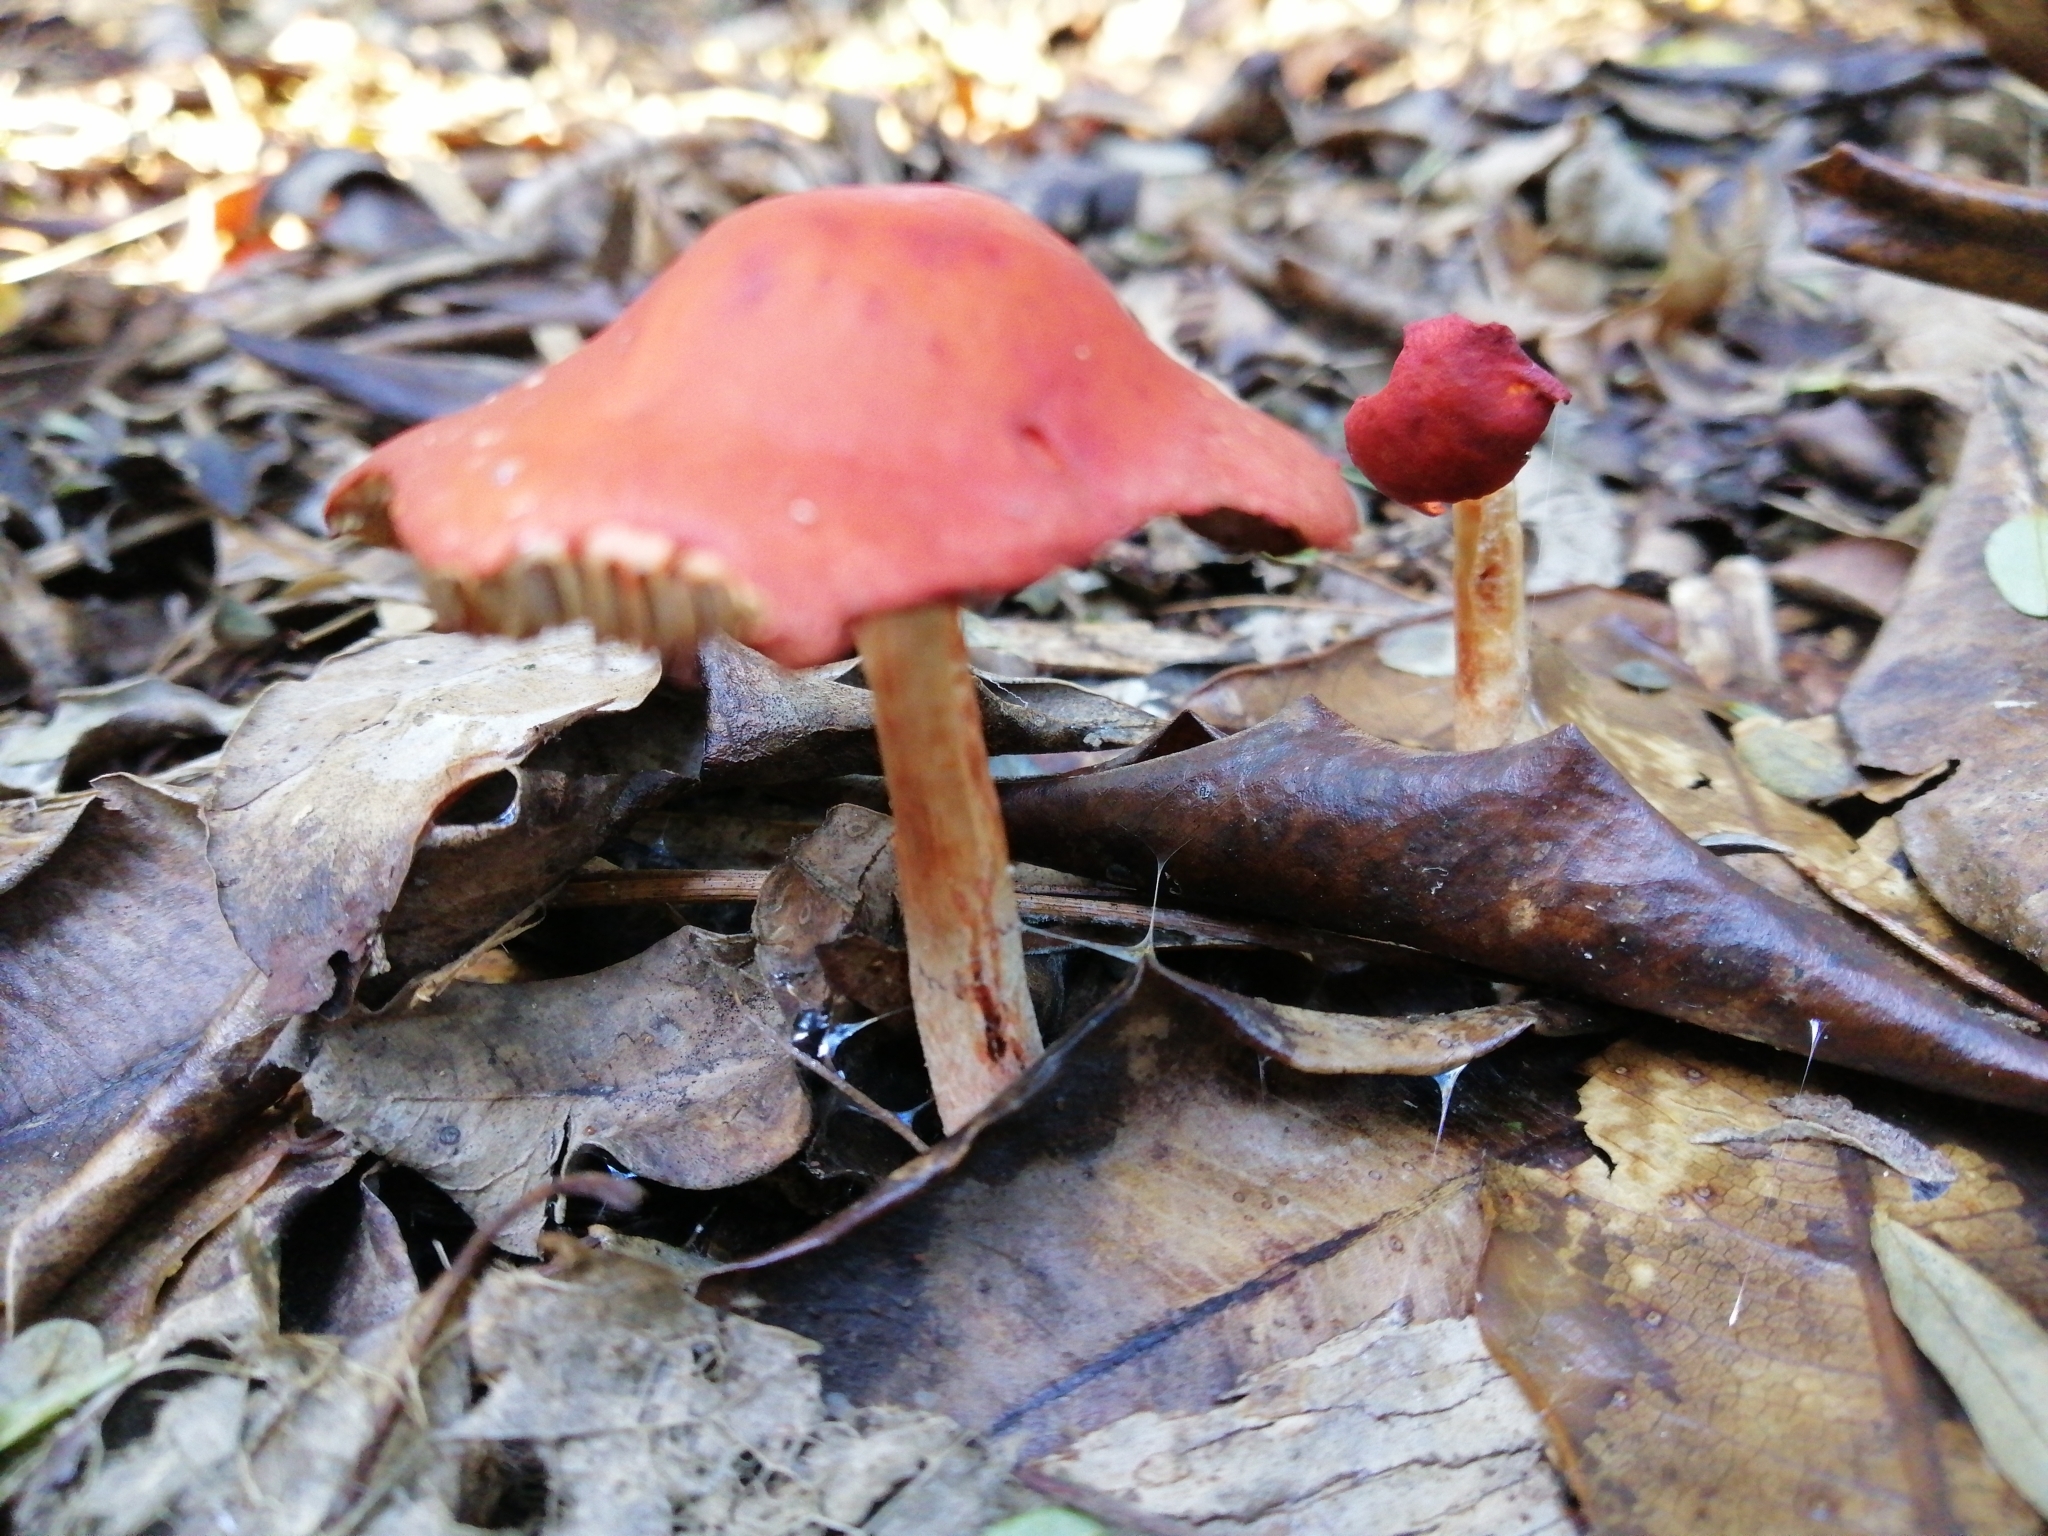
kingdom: Fungi
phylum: Basidiomycota
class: Agaricomycetes
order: Agaricales
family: Strophariaceae
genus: Leratiomyces
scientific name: Leratiomyces ceres
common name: Redlead roundhead
